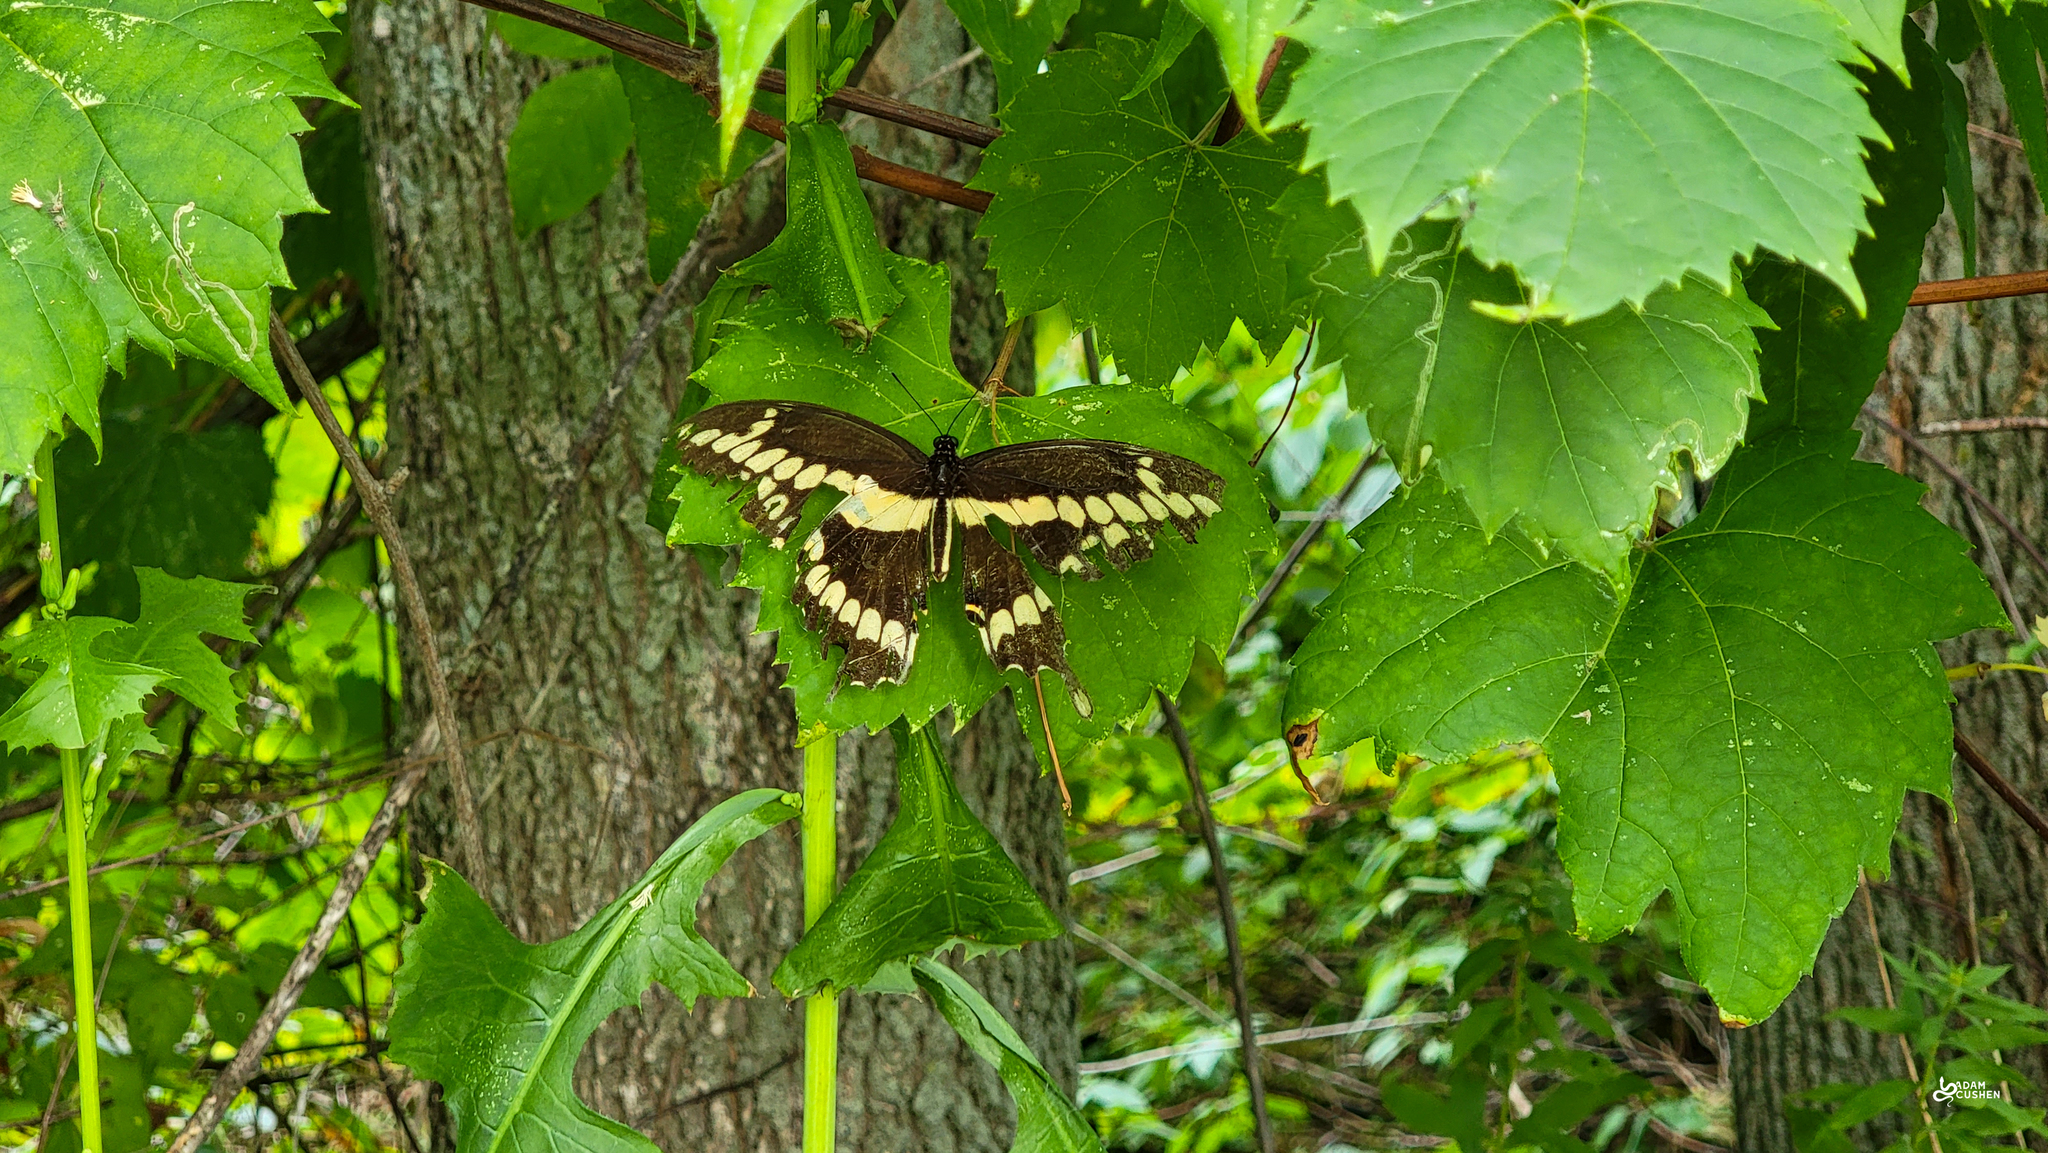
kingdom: Animalia
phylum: Arthropoda
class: Insecta
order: Lepidoptera
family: Papilionidae
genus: Papilio
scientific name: Papilio cresphontes
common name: Giant swallowtail
